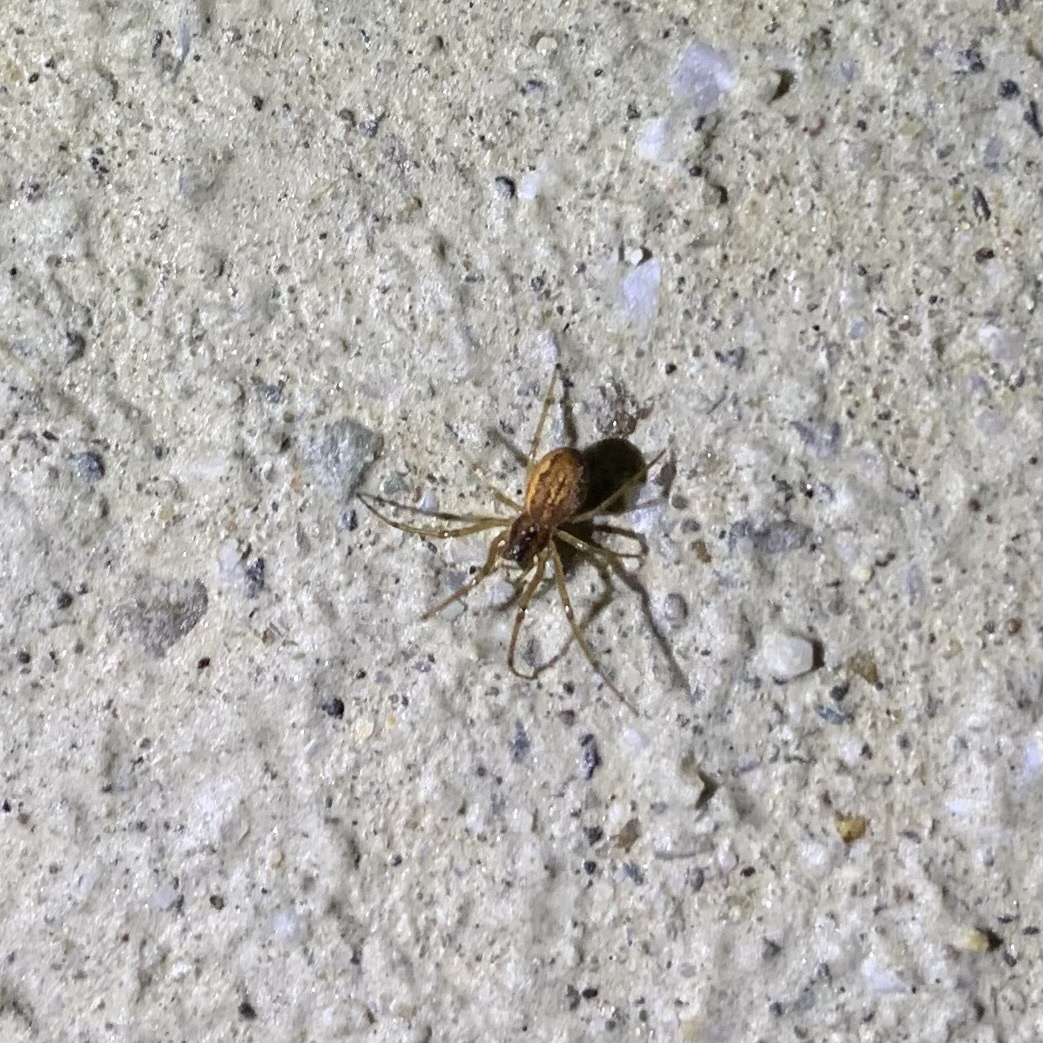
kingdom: Animalia
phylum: Arthropoda
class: Arachnida
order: Araneae
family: Tetragnathidae
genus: Pachygnatha
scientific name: Pachygnatha autumnalis
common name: Big-eyed thick-jawed spider
